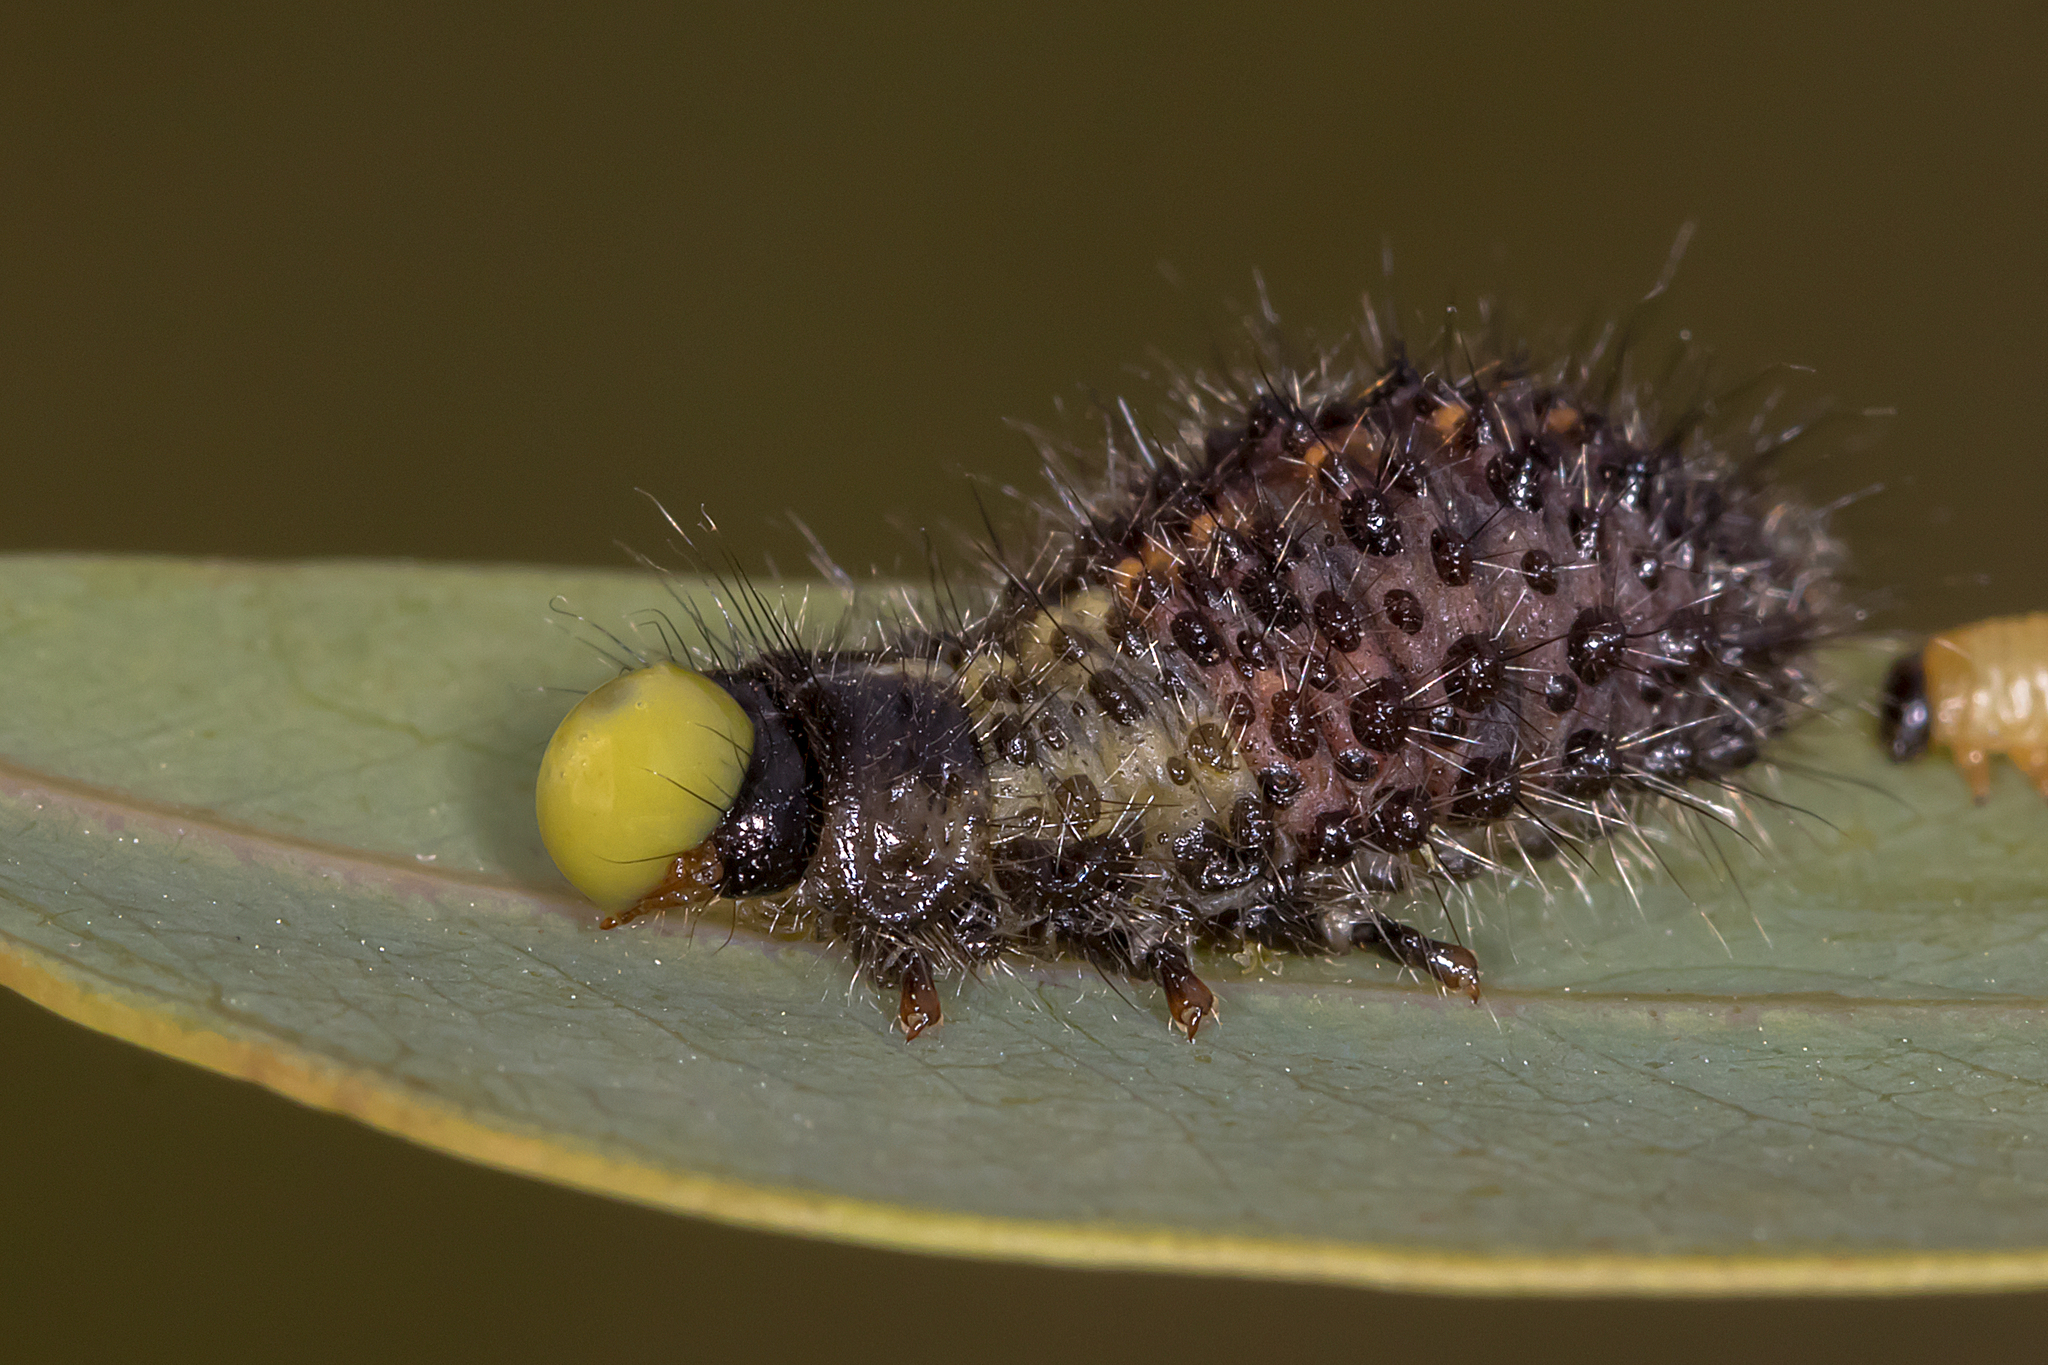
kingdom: Animalia
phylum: Arthropoda
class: Insecta
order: Coleoptera
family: Chrysomelidae
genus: Paropsisterna
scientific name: Paropsisterna beata
